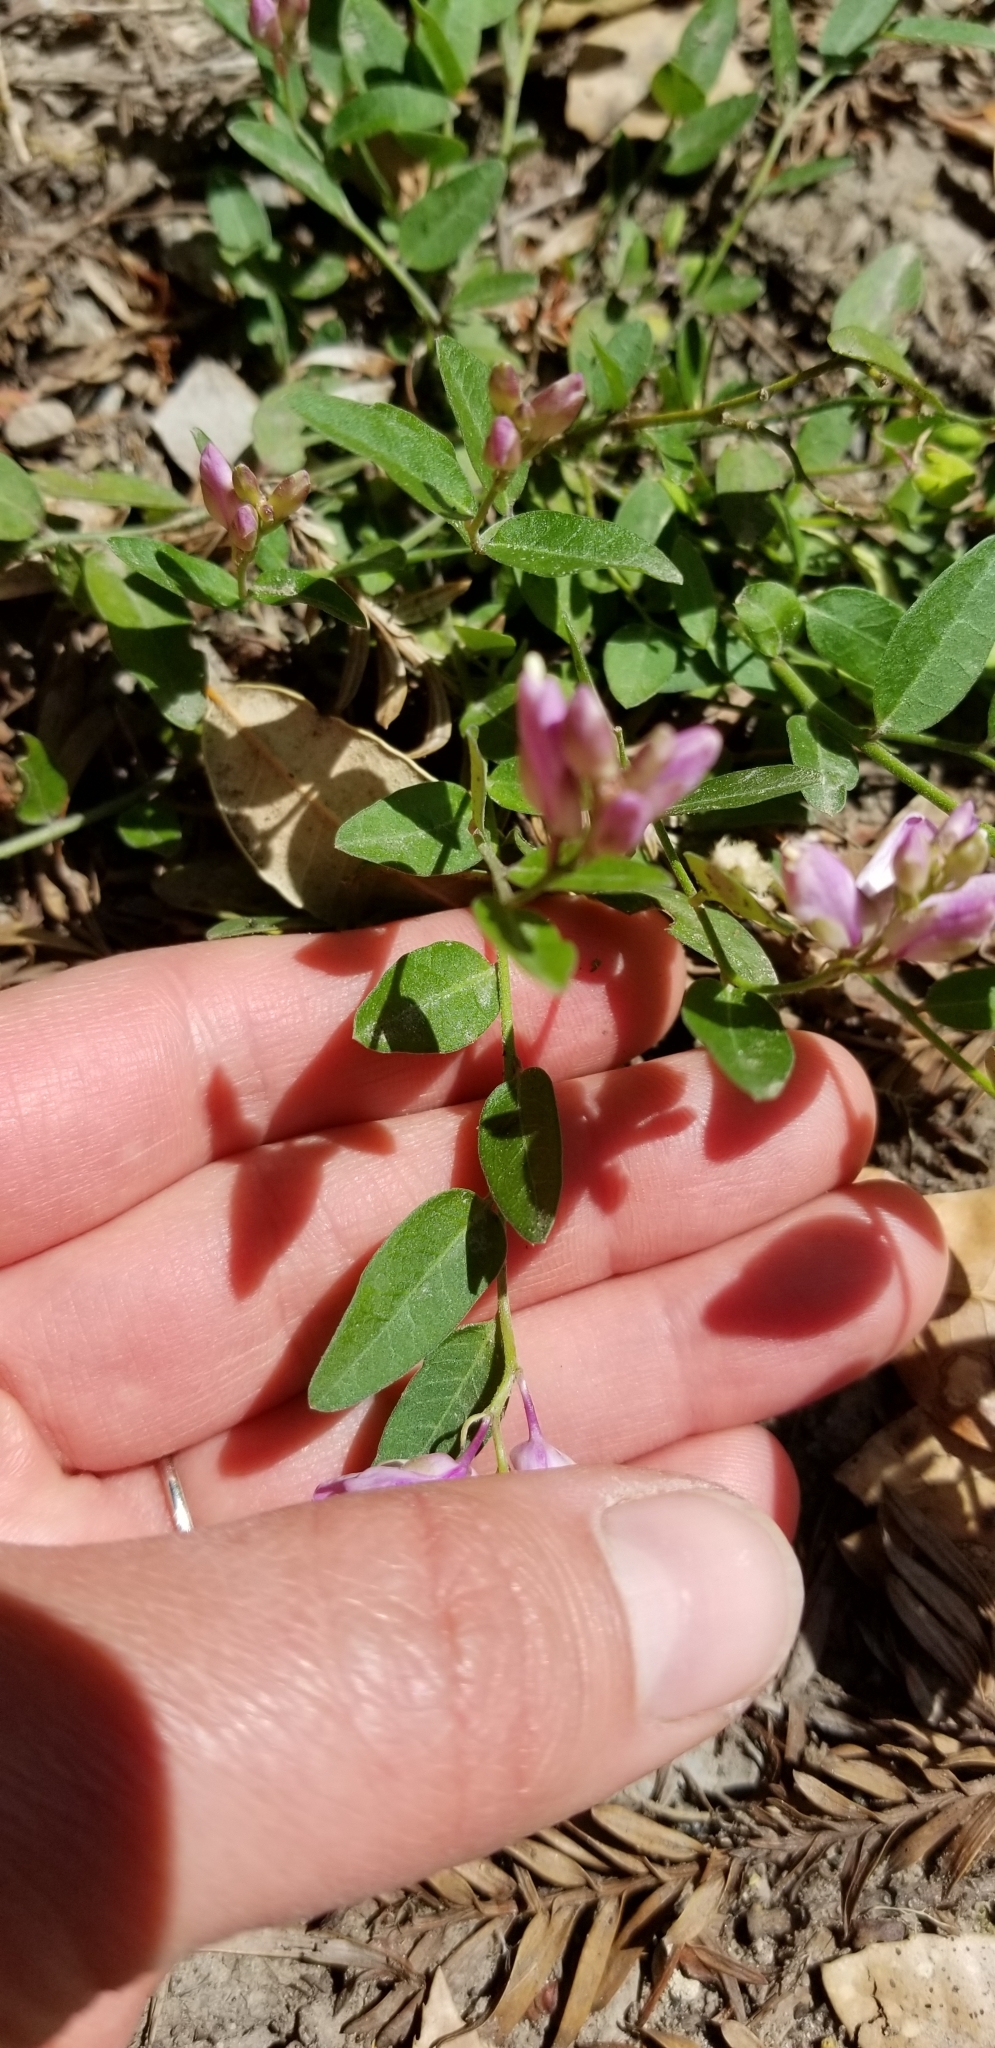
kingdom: Plantae
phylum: Tracheophyta
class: Magnoliopsida
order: Fabales
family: Polygalaceae
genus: Rhinotropis
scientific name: Rhinotropis californica
